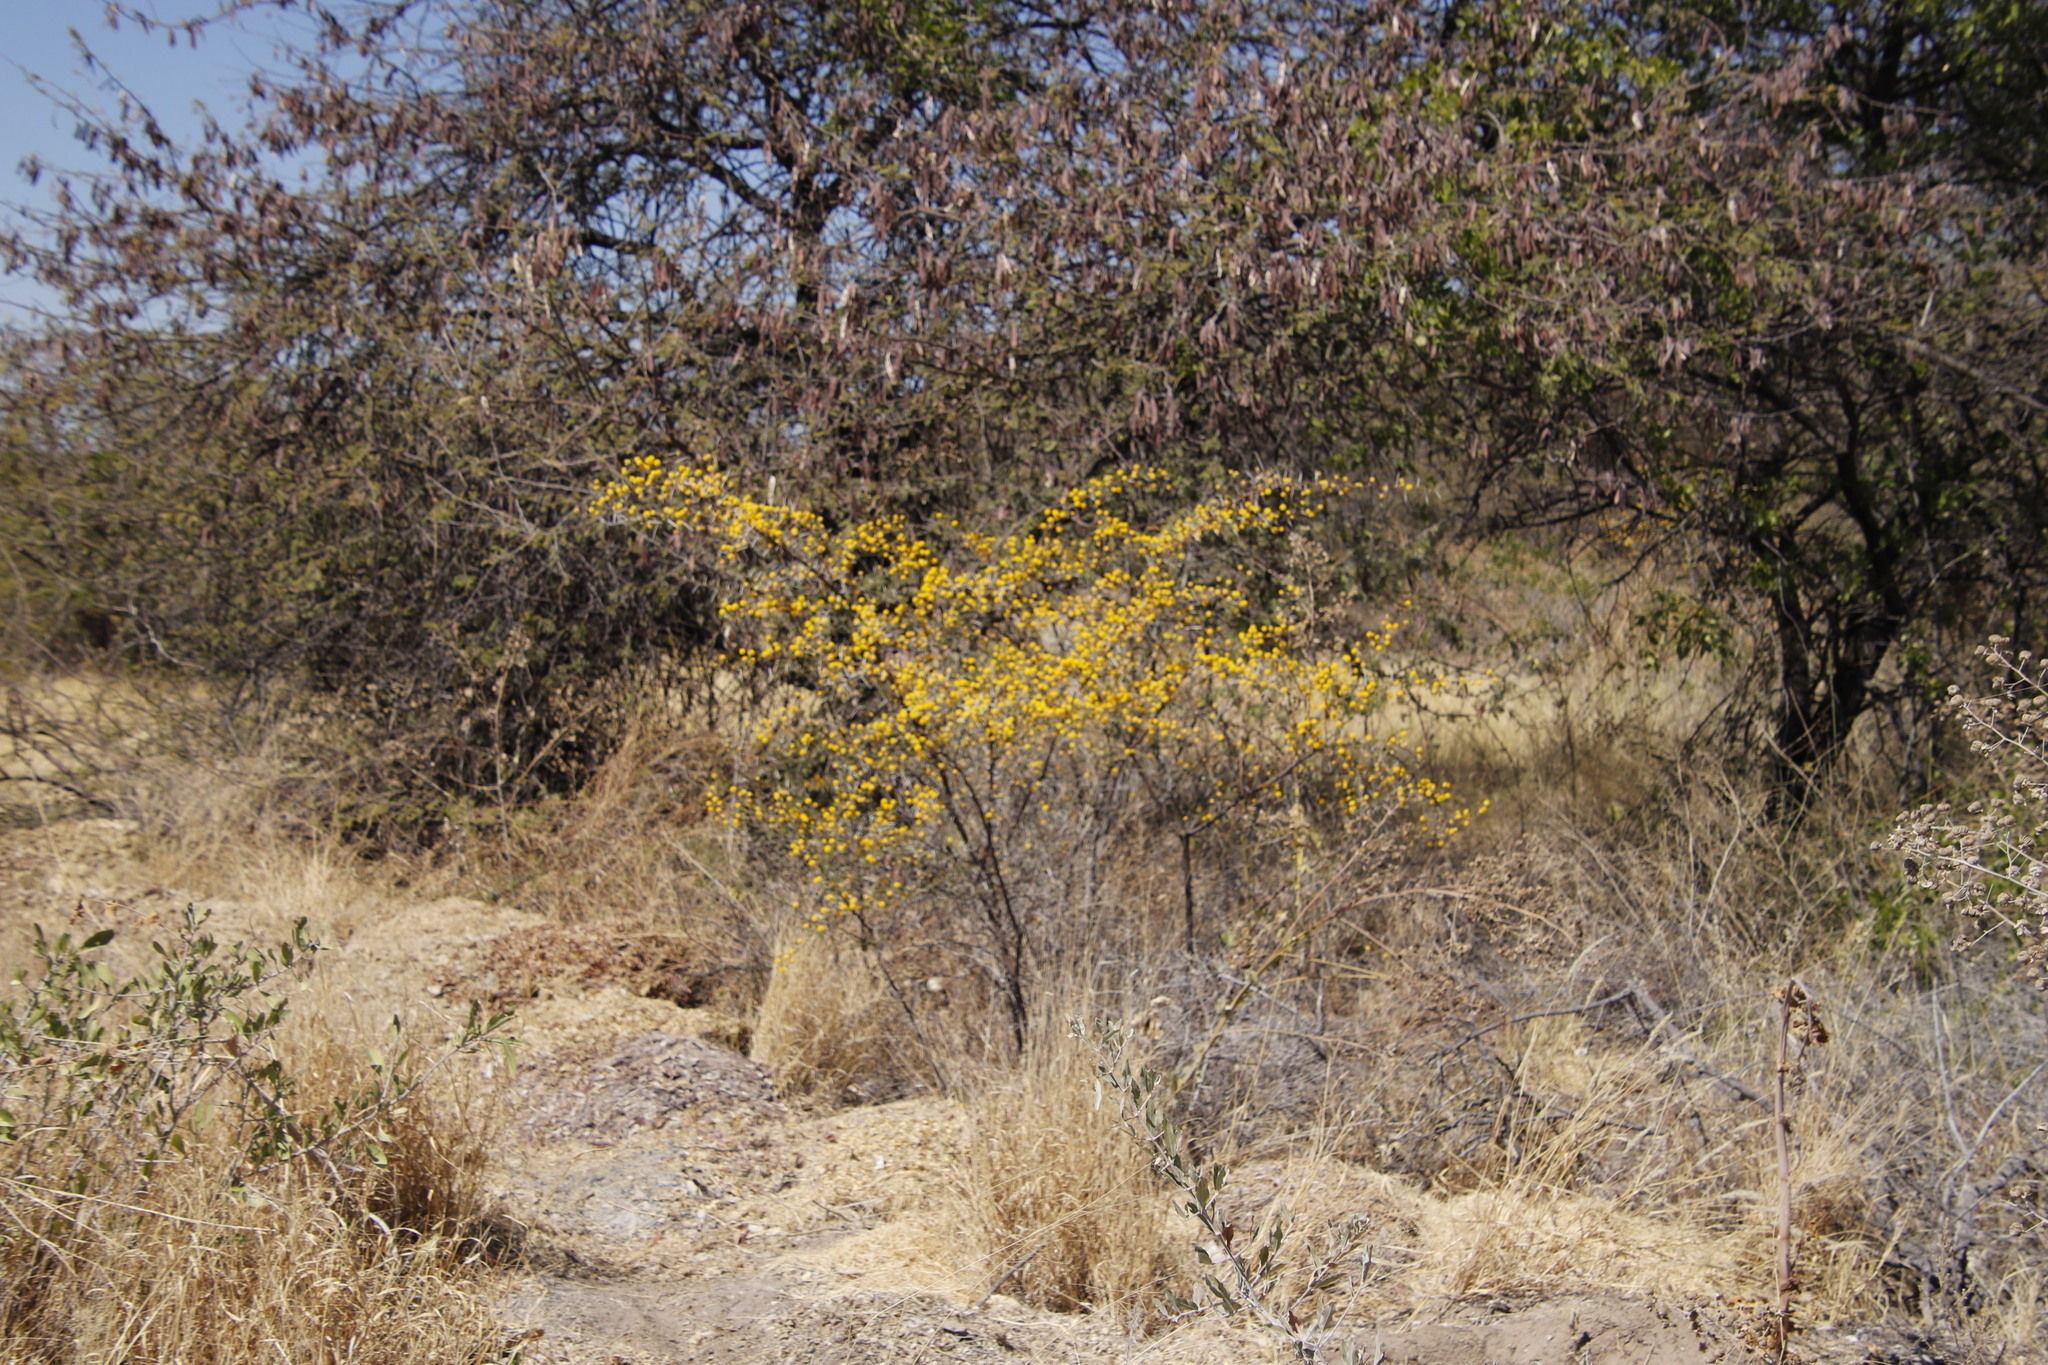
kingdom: Plantae
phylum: Tracheophyta
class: Magnoliopsida
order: Fabales
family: Fabaceae
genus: Vachellia
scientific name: Vachellia nebrownii
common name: Water acacia
